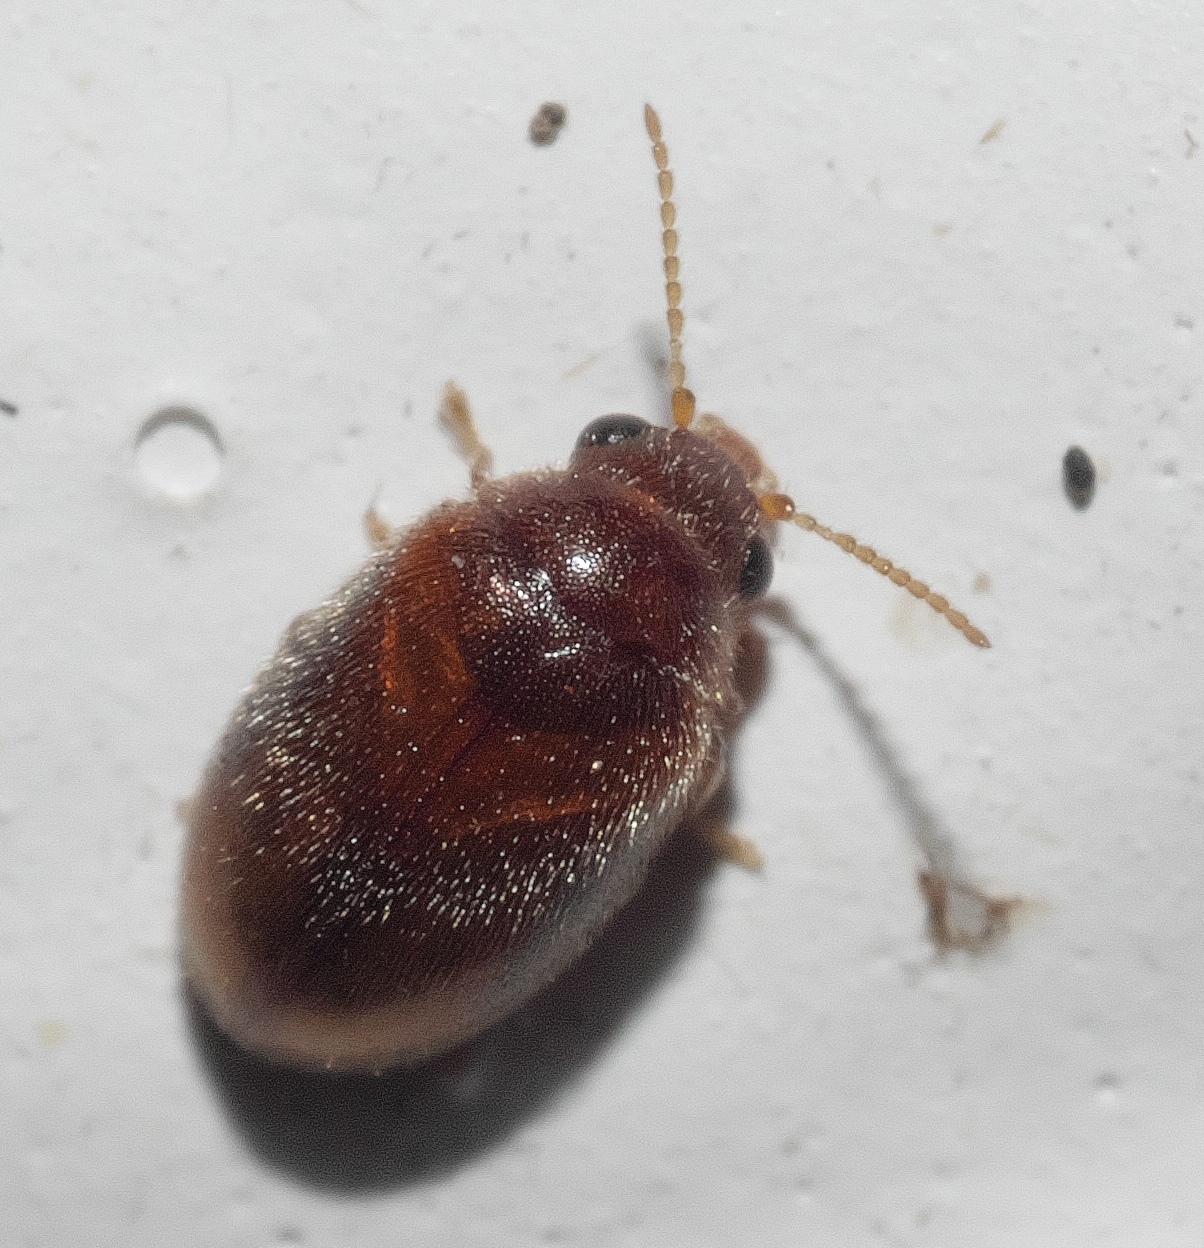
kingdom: Animalia
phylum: Arthropoda
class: Insecta
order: Coleoptera
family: Scirtidae
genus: Contacyphon
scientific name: Contacyphon
